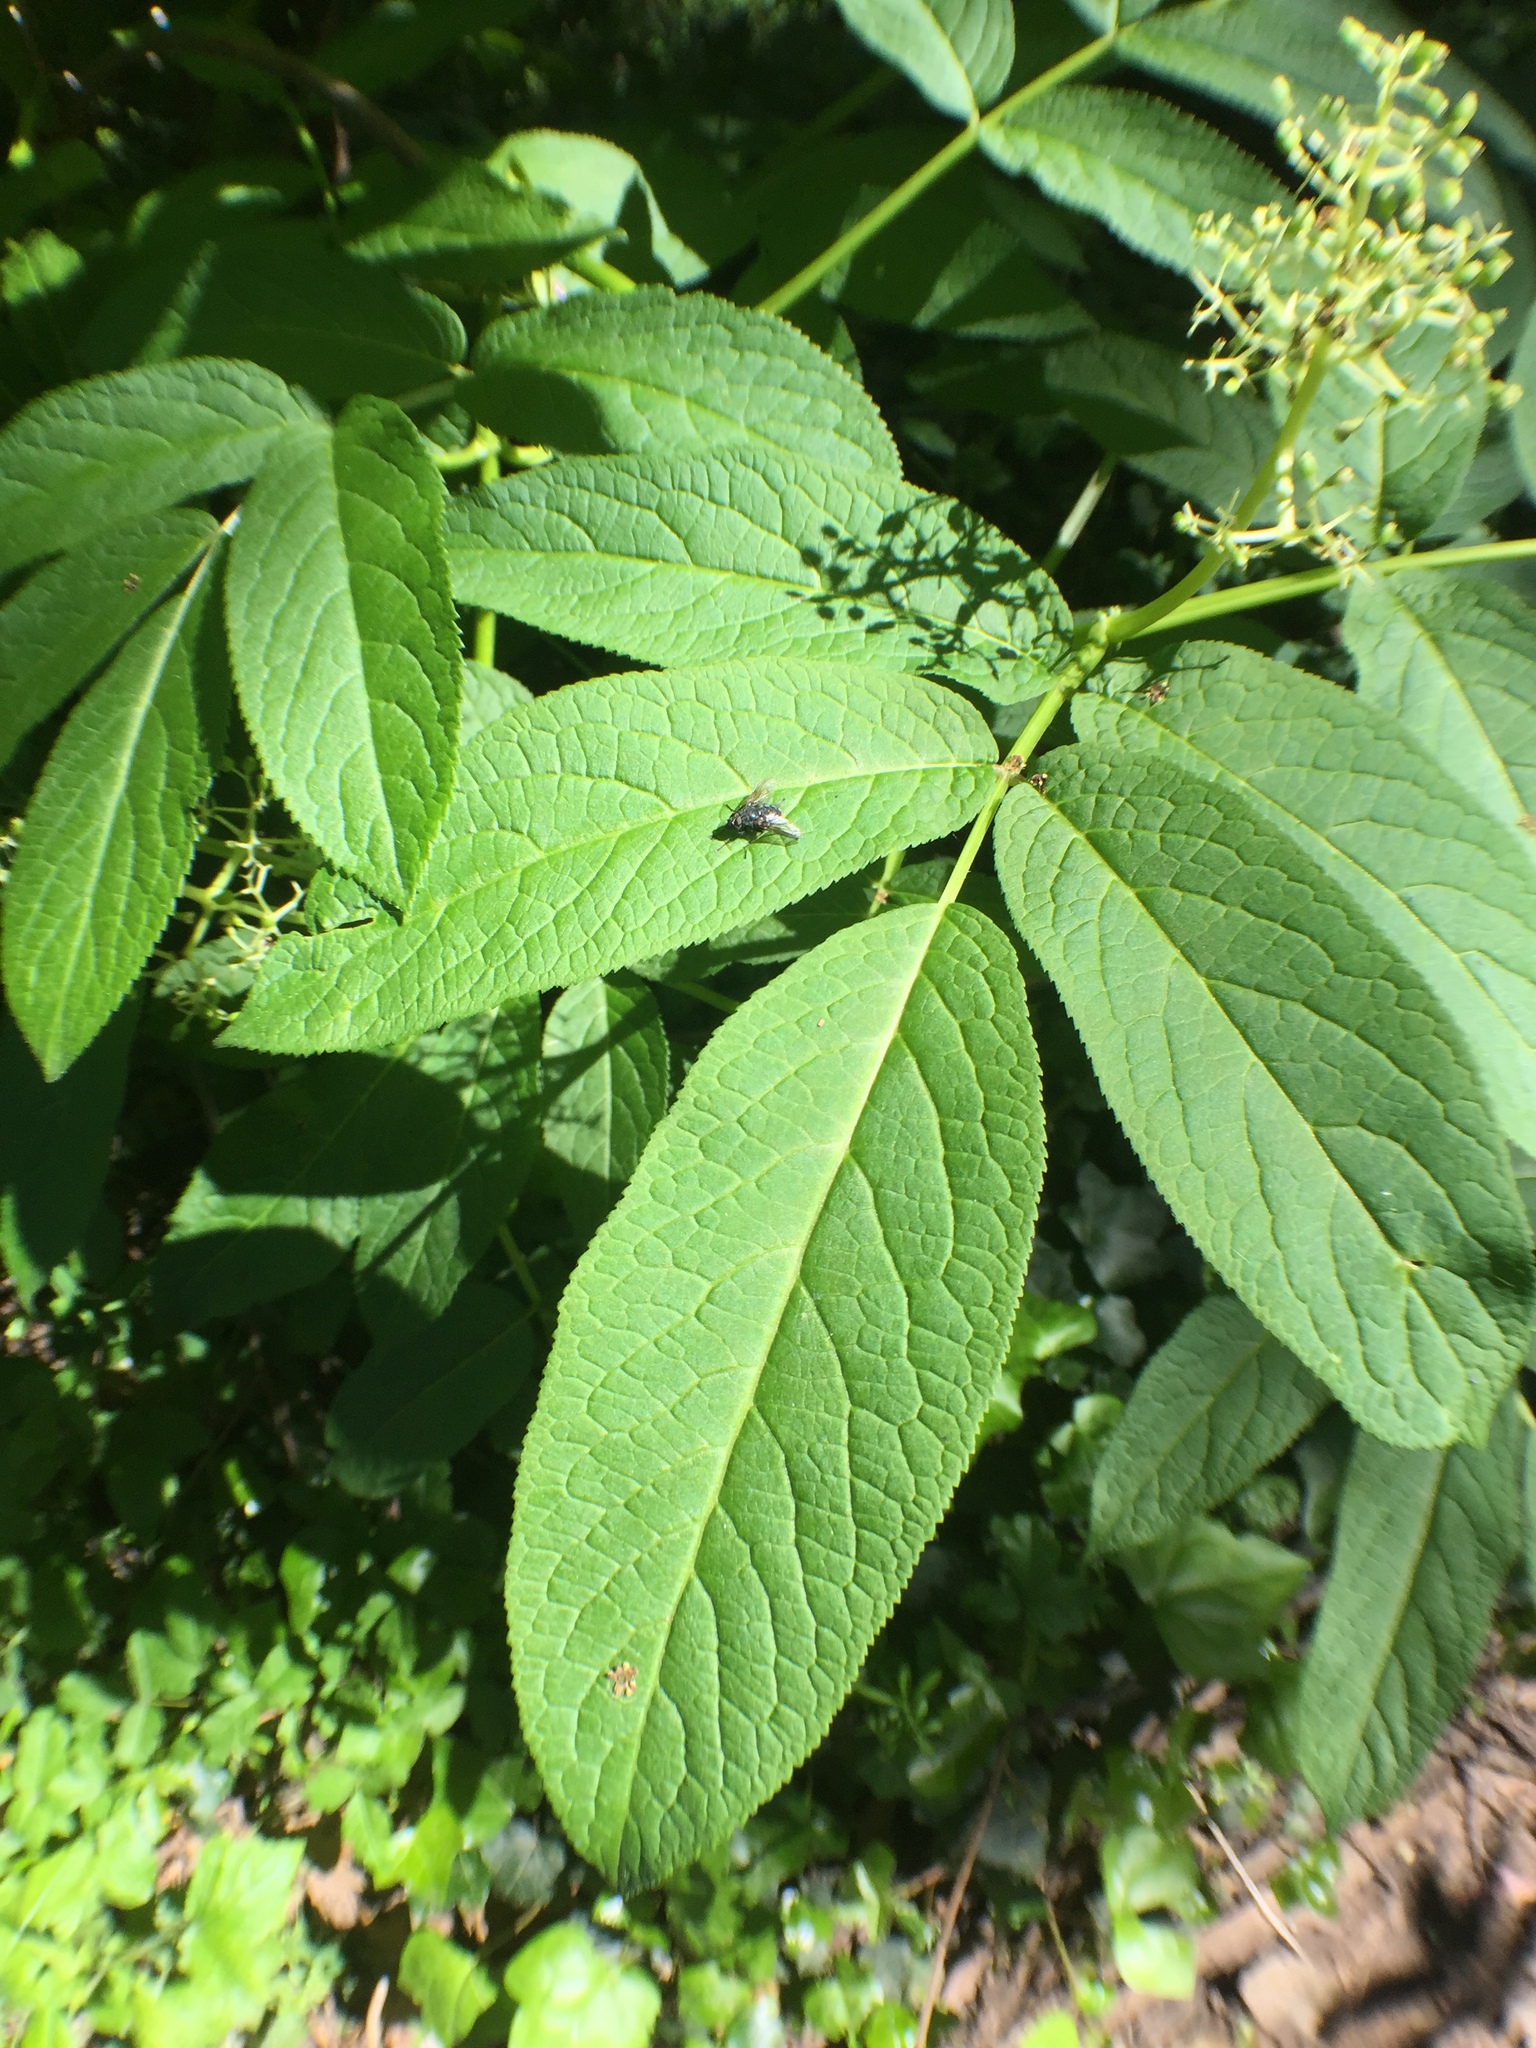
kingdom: Plantae
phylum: Tracheophyta
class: Magnoliopsida
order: Dipsacales
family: Viburnaceae
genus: Sambucus
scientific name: Sambucus racemosa
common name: Red-berried elder
